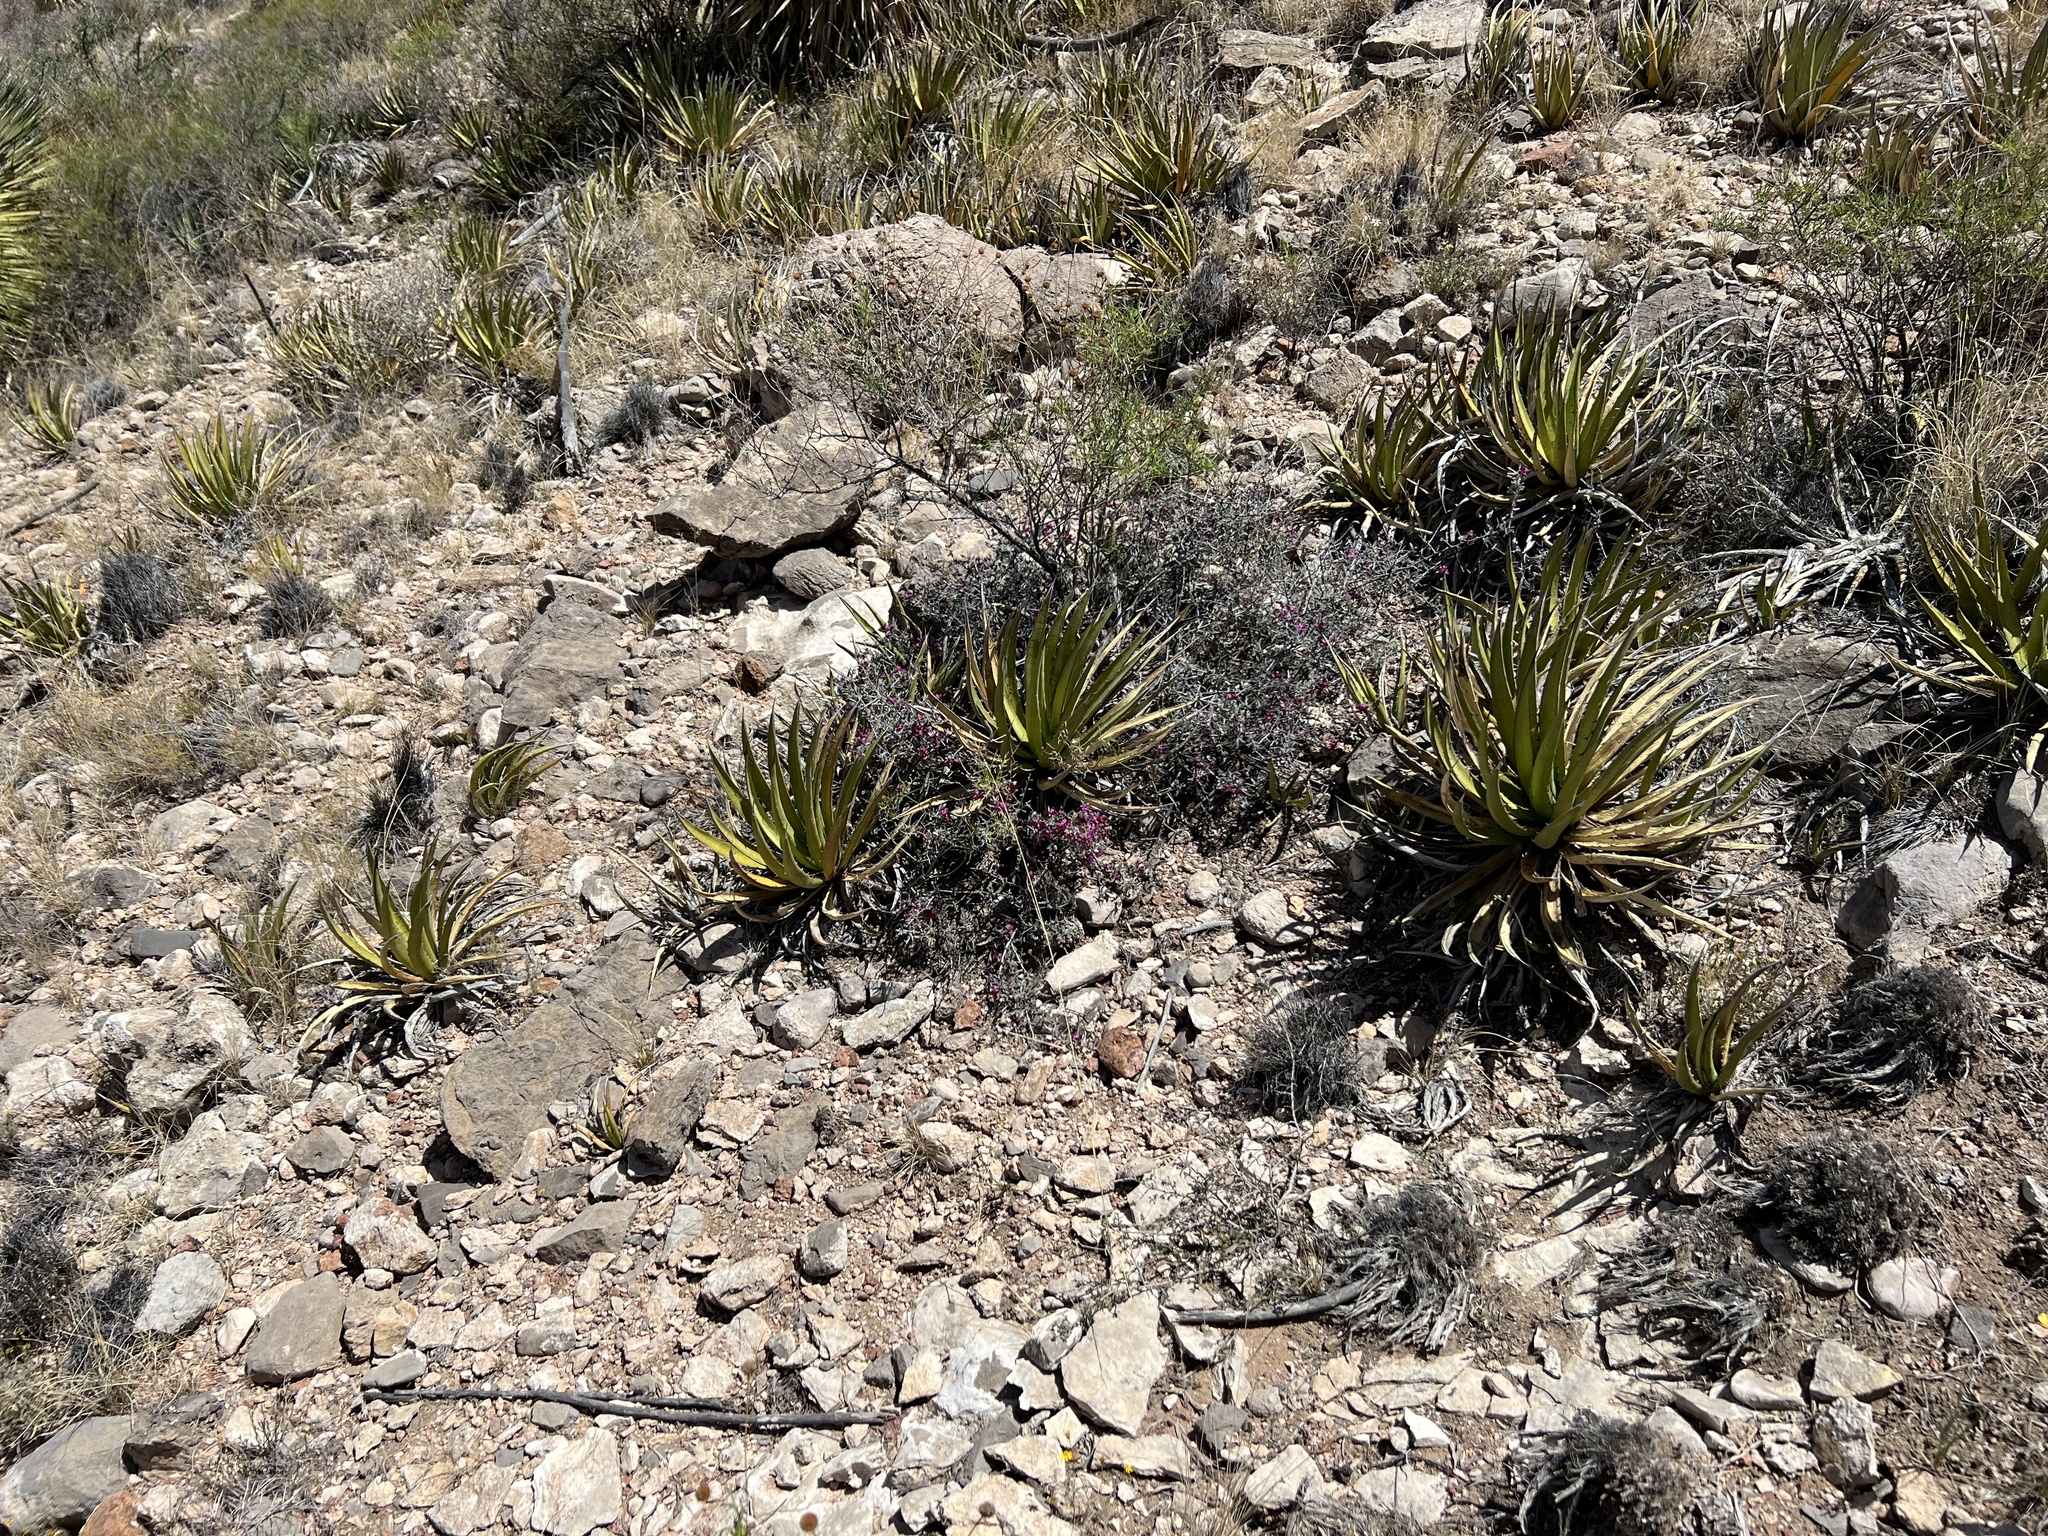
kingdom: Plantae
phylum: Tracheophyta
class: Liliopsida
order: Asparagales
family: Asparagaceae
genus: Agave
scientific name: Agave lechuguilla
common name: Lecheguilla agave
